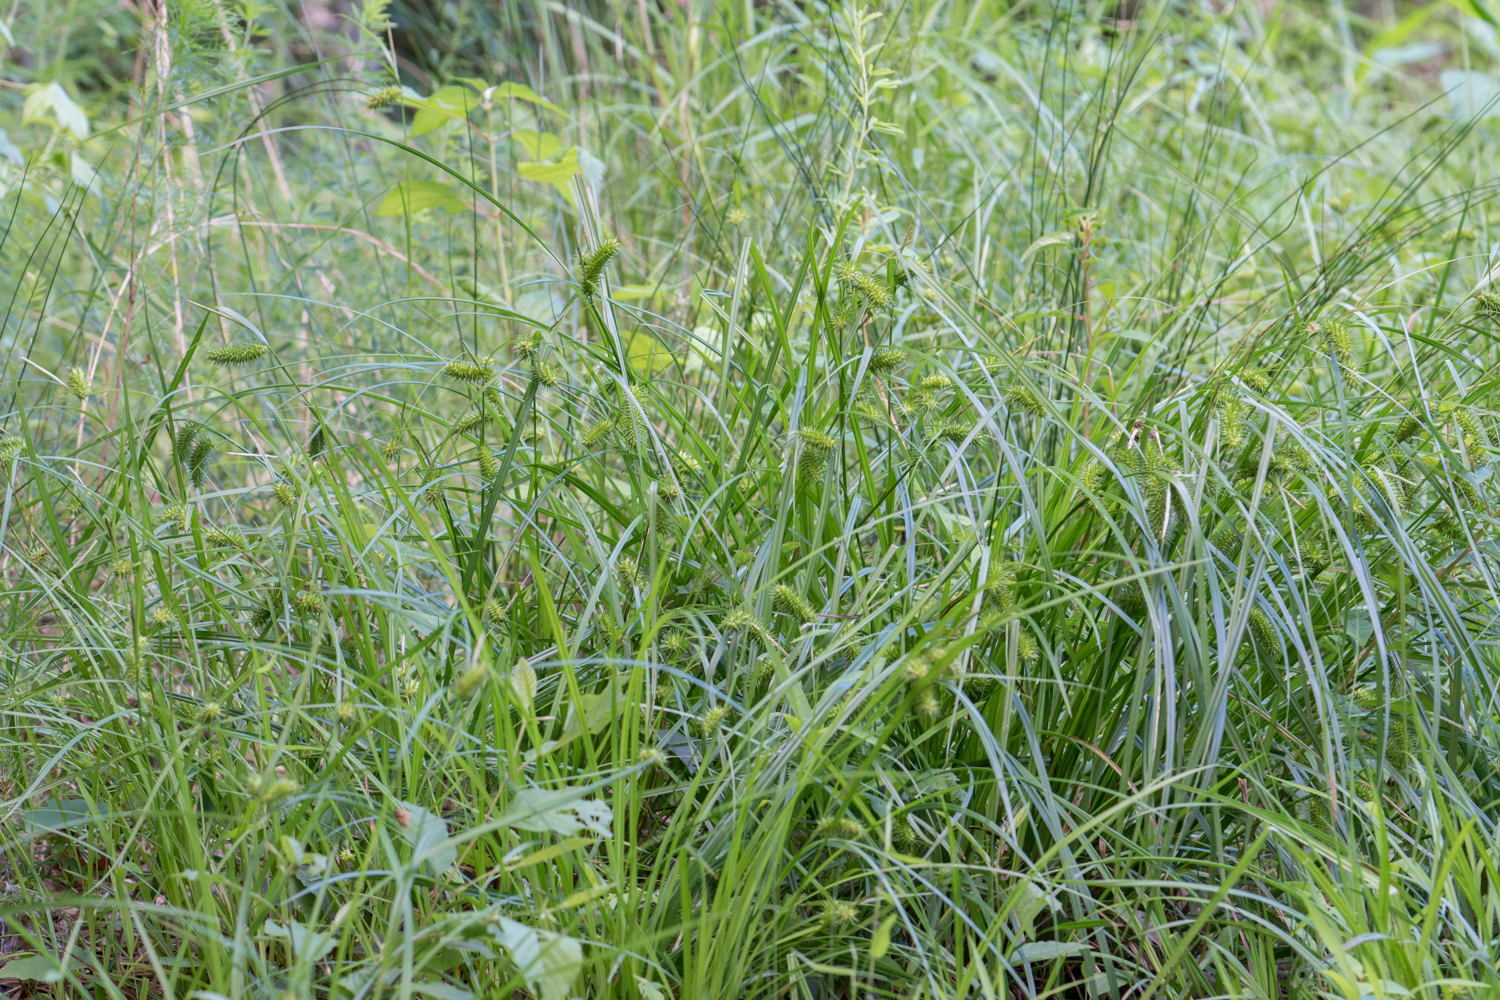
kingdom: Plantae
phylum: Tracheophyta
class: Liliopsida
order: Poales
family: Cyperaceae
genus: Carex
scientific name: Carex lurida
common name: Sallow sedge
